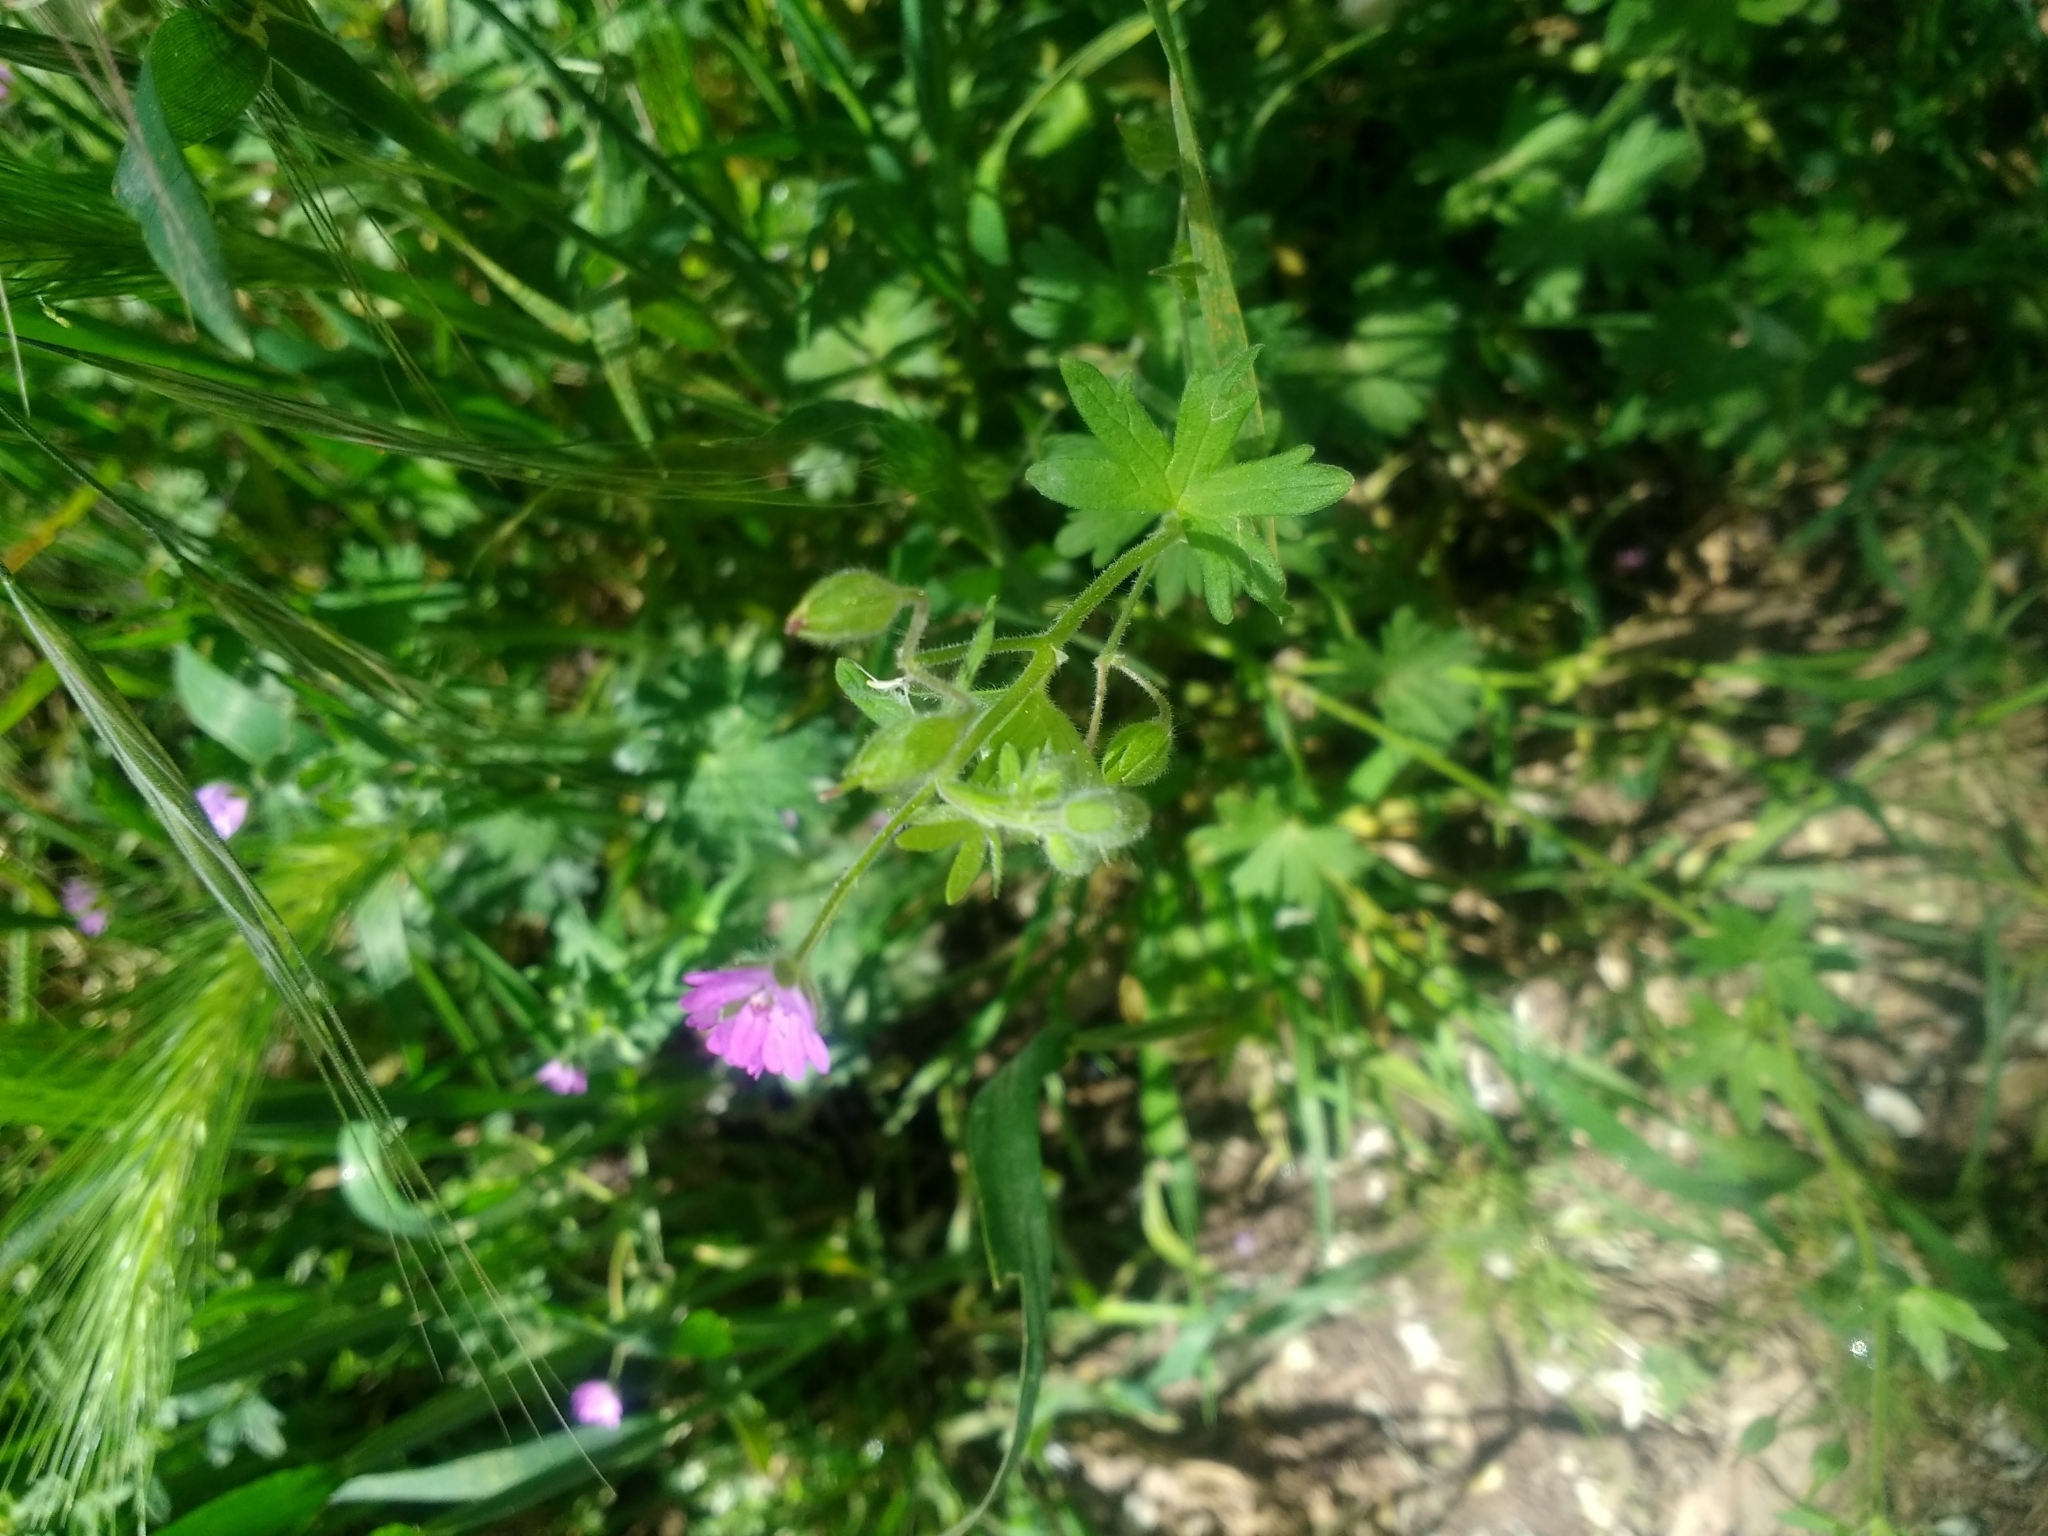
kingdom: Plantae
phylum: Tracheophyta
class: Magnoliopsida
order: Geraniales
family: Geraniaceae
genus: Geranium
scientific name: Geranium molle
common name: Dove's-foot crane's-bill
